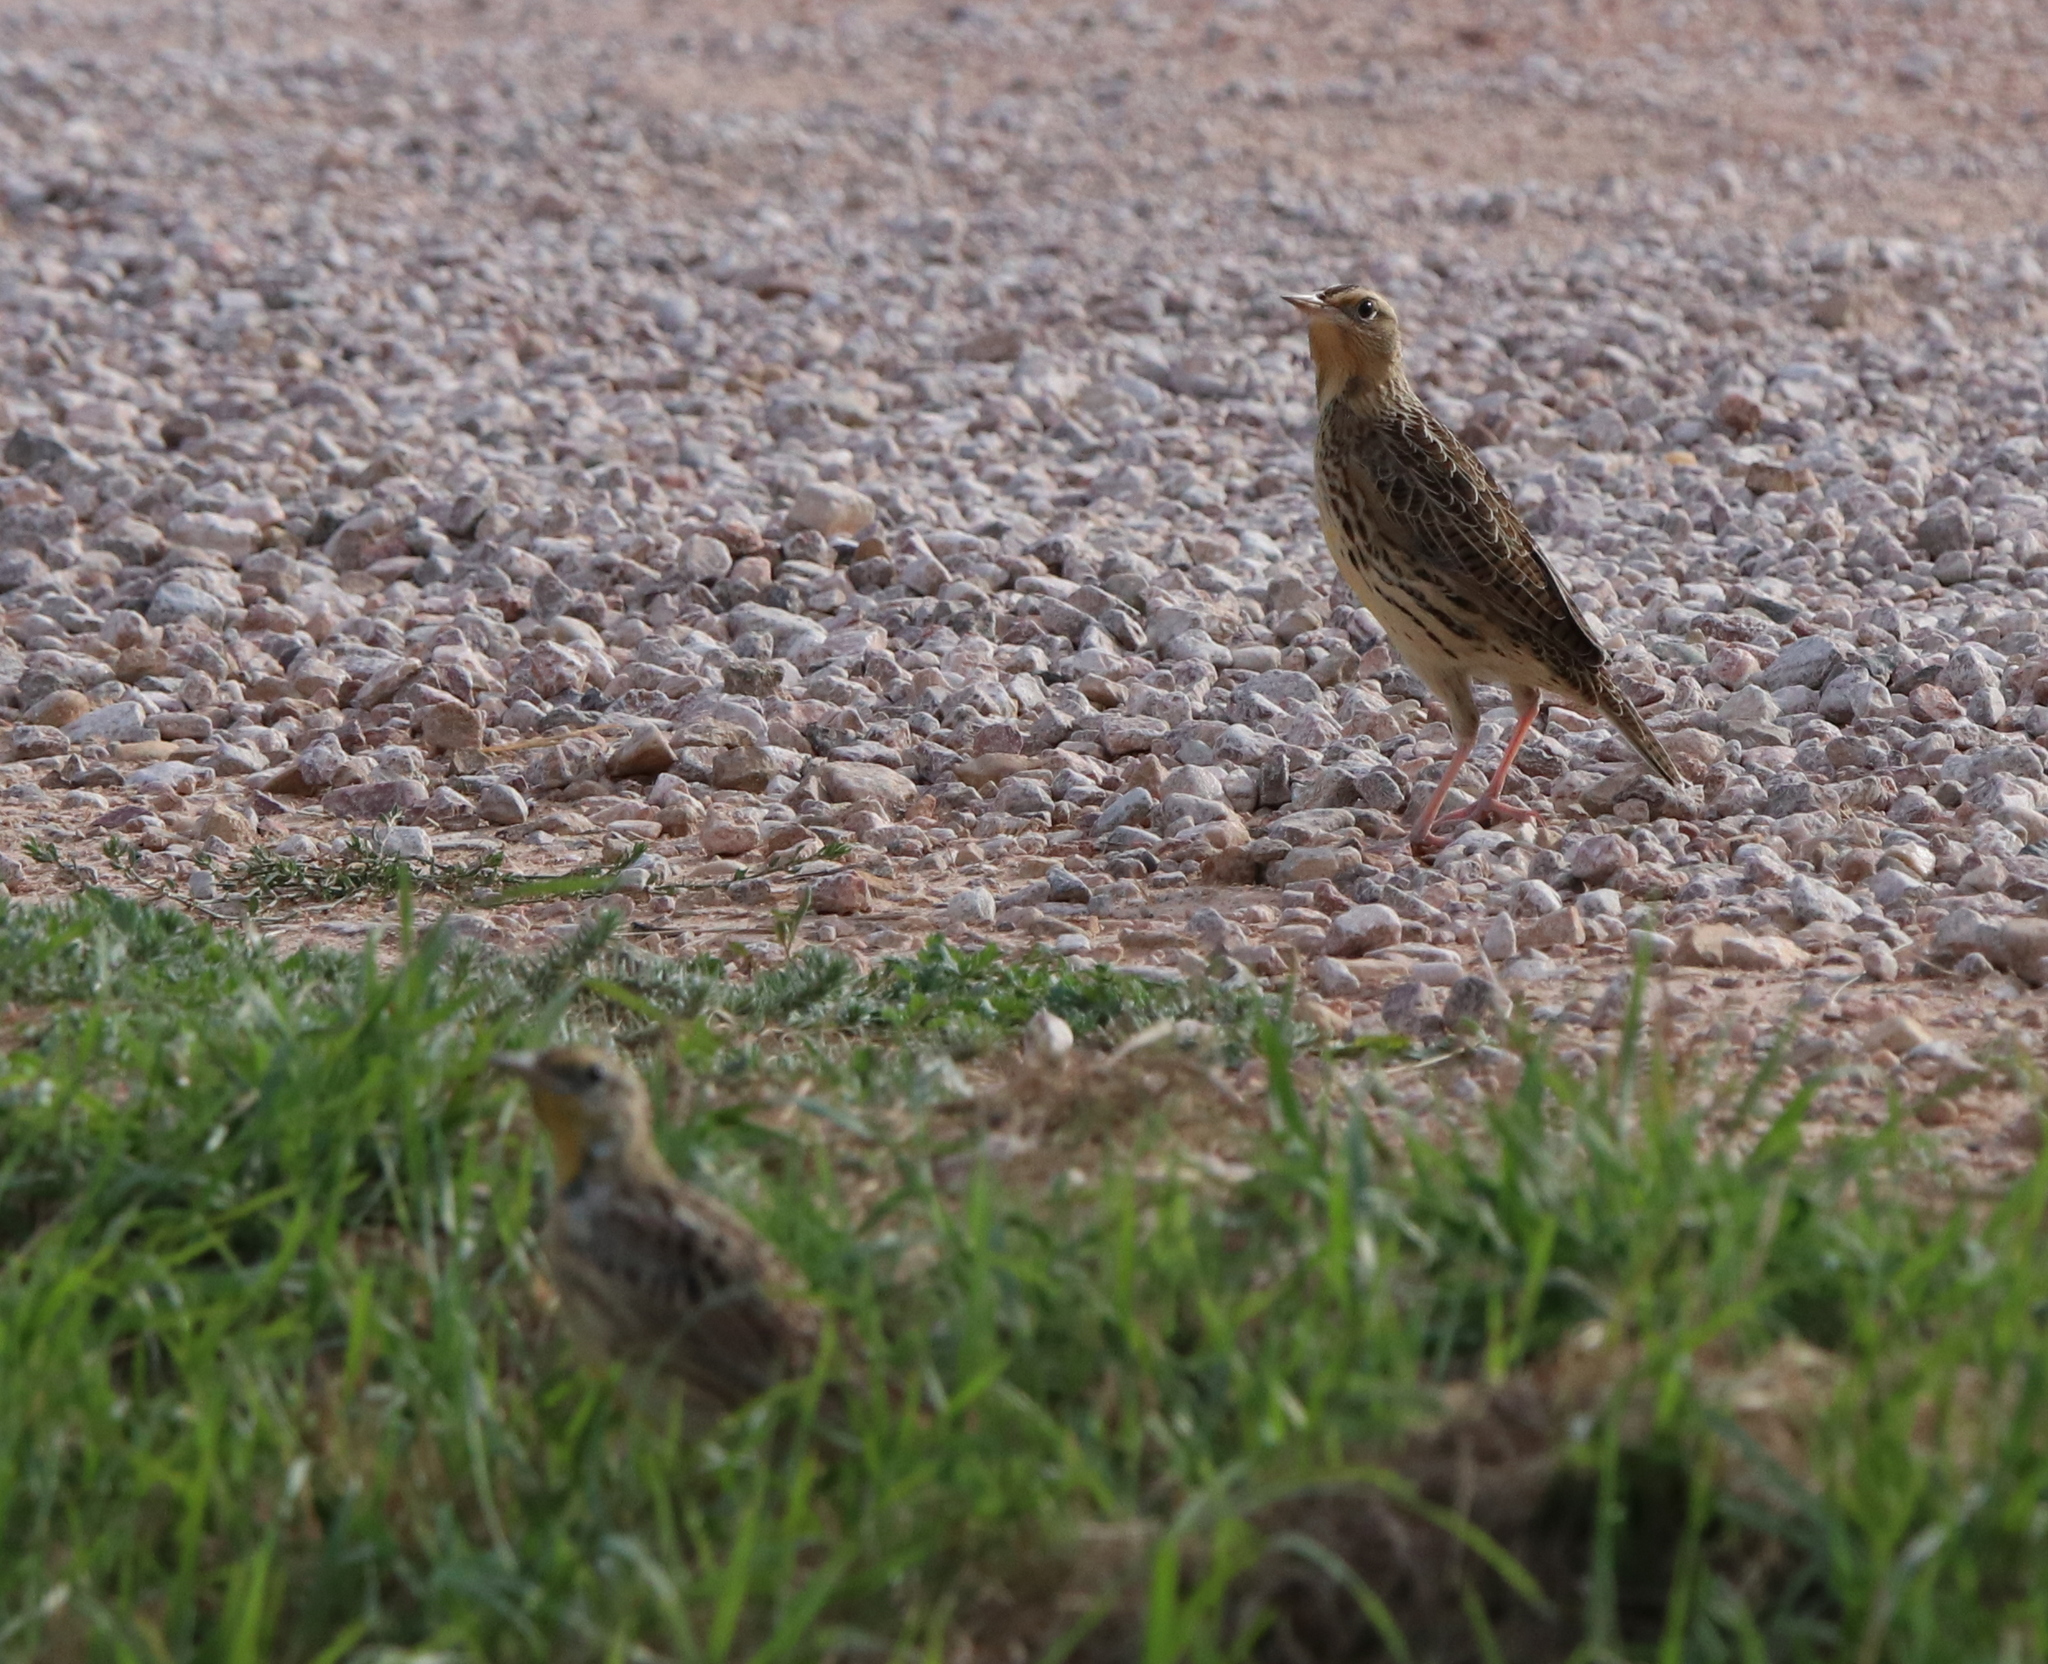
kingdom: Animalia
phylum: Chordata
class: Aves
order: Passeriformes
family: Icteridae
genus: Sturnella
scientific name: Sturnella neglecta
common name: Western meadowlark
